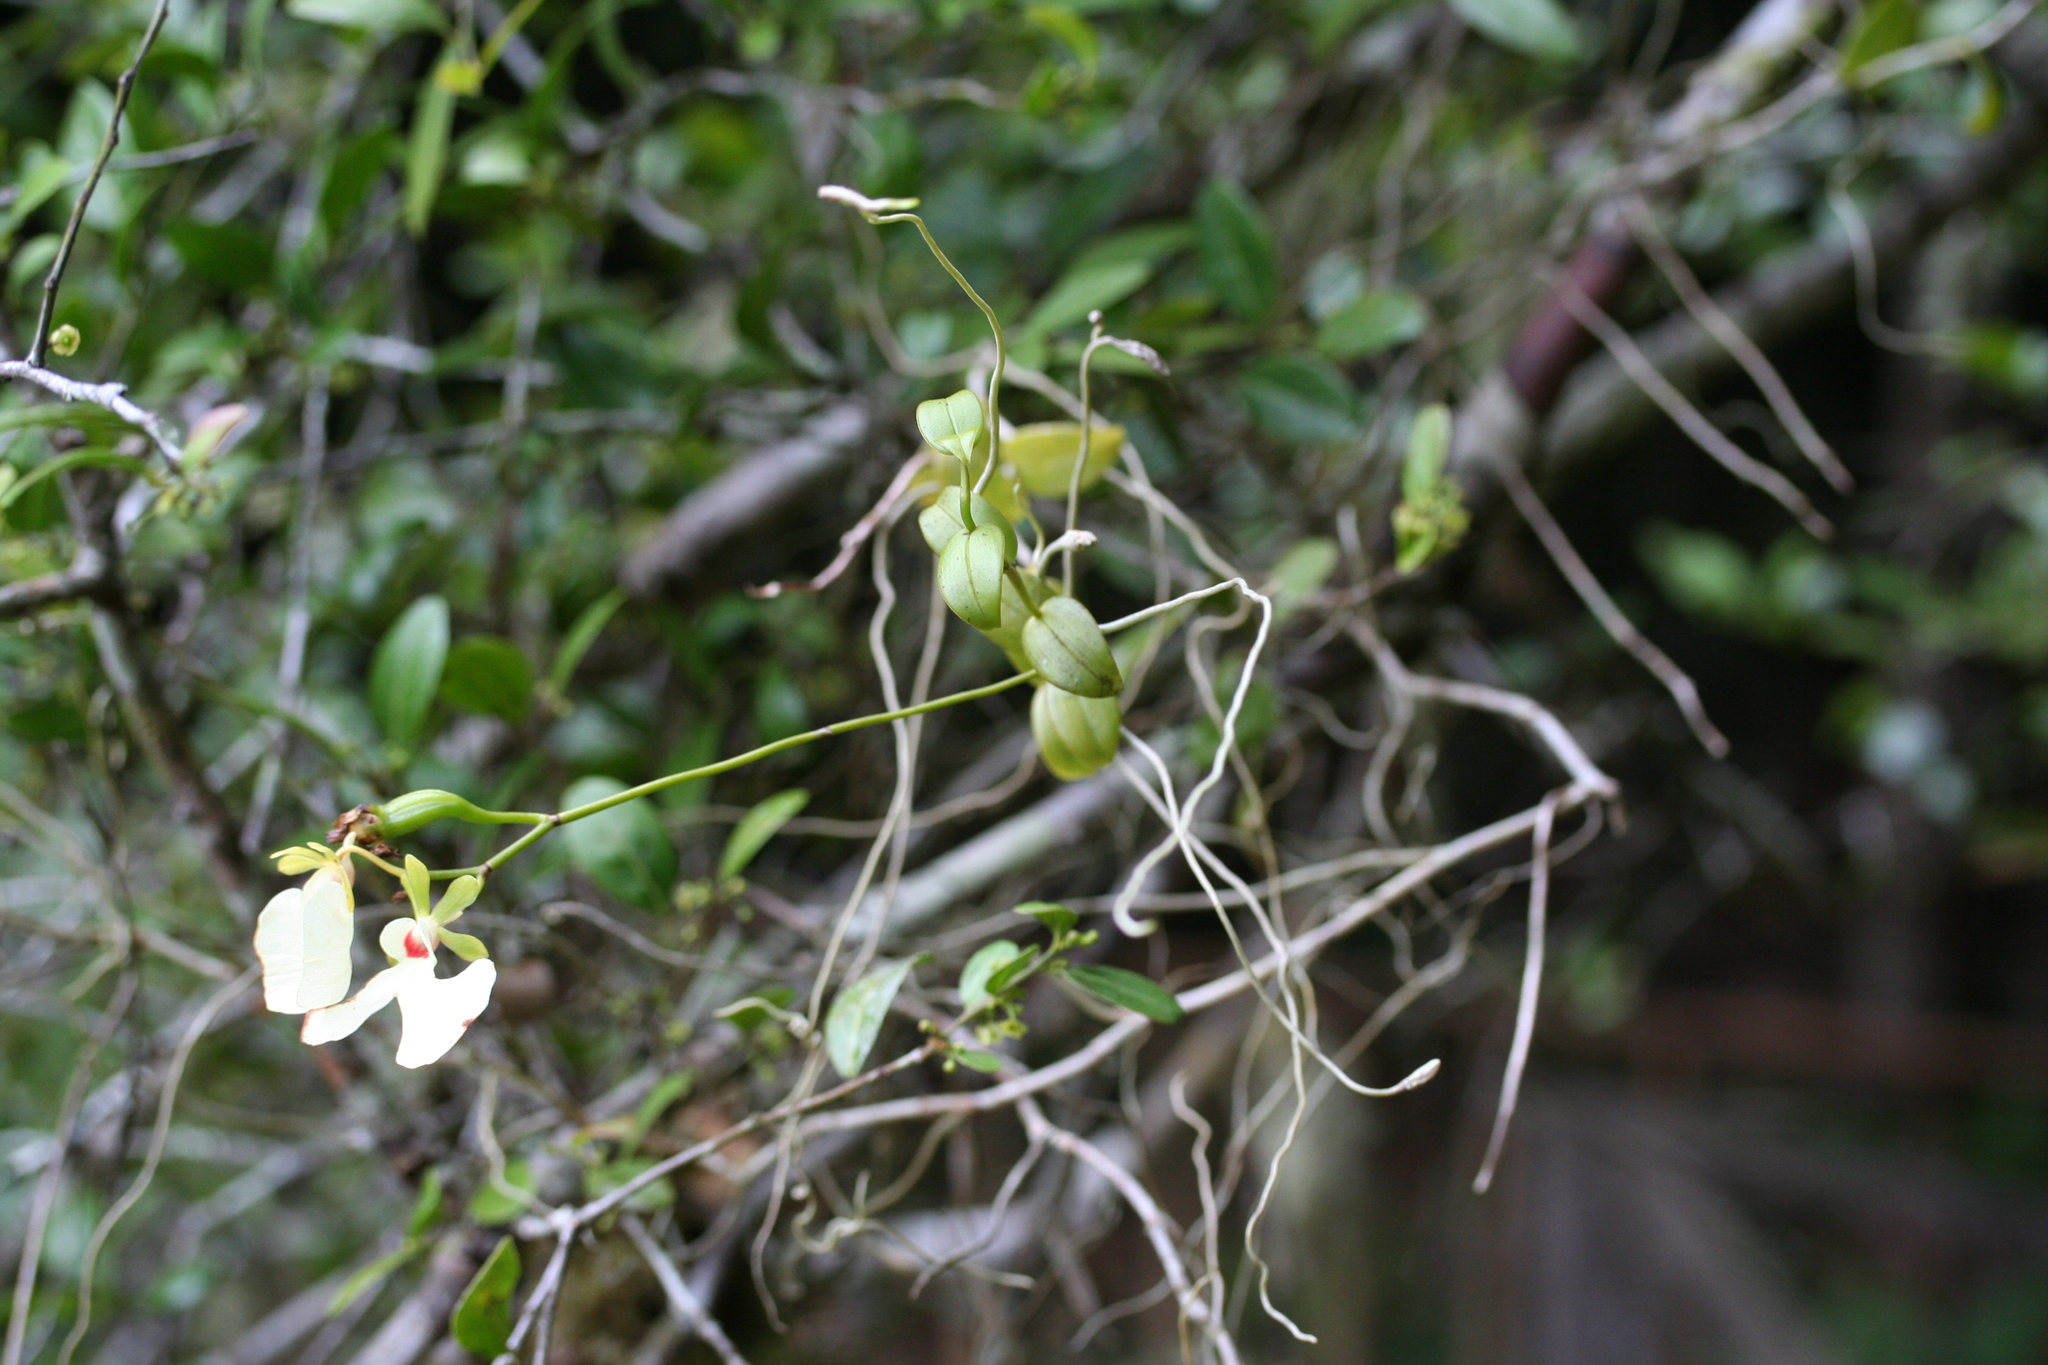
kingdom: Plantae
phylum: Tracheophyta
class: Liliopsida
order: Asparagales
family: Orchidaceae
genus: Oeonia
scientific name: Oeonia rosea
